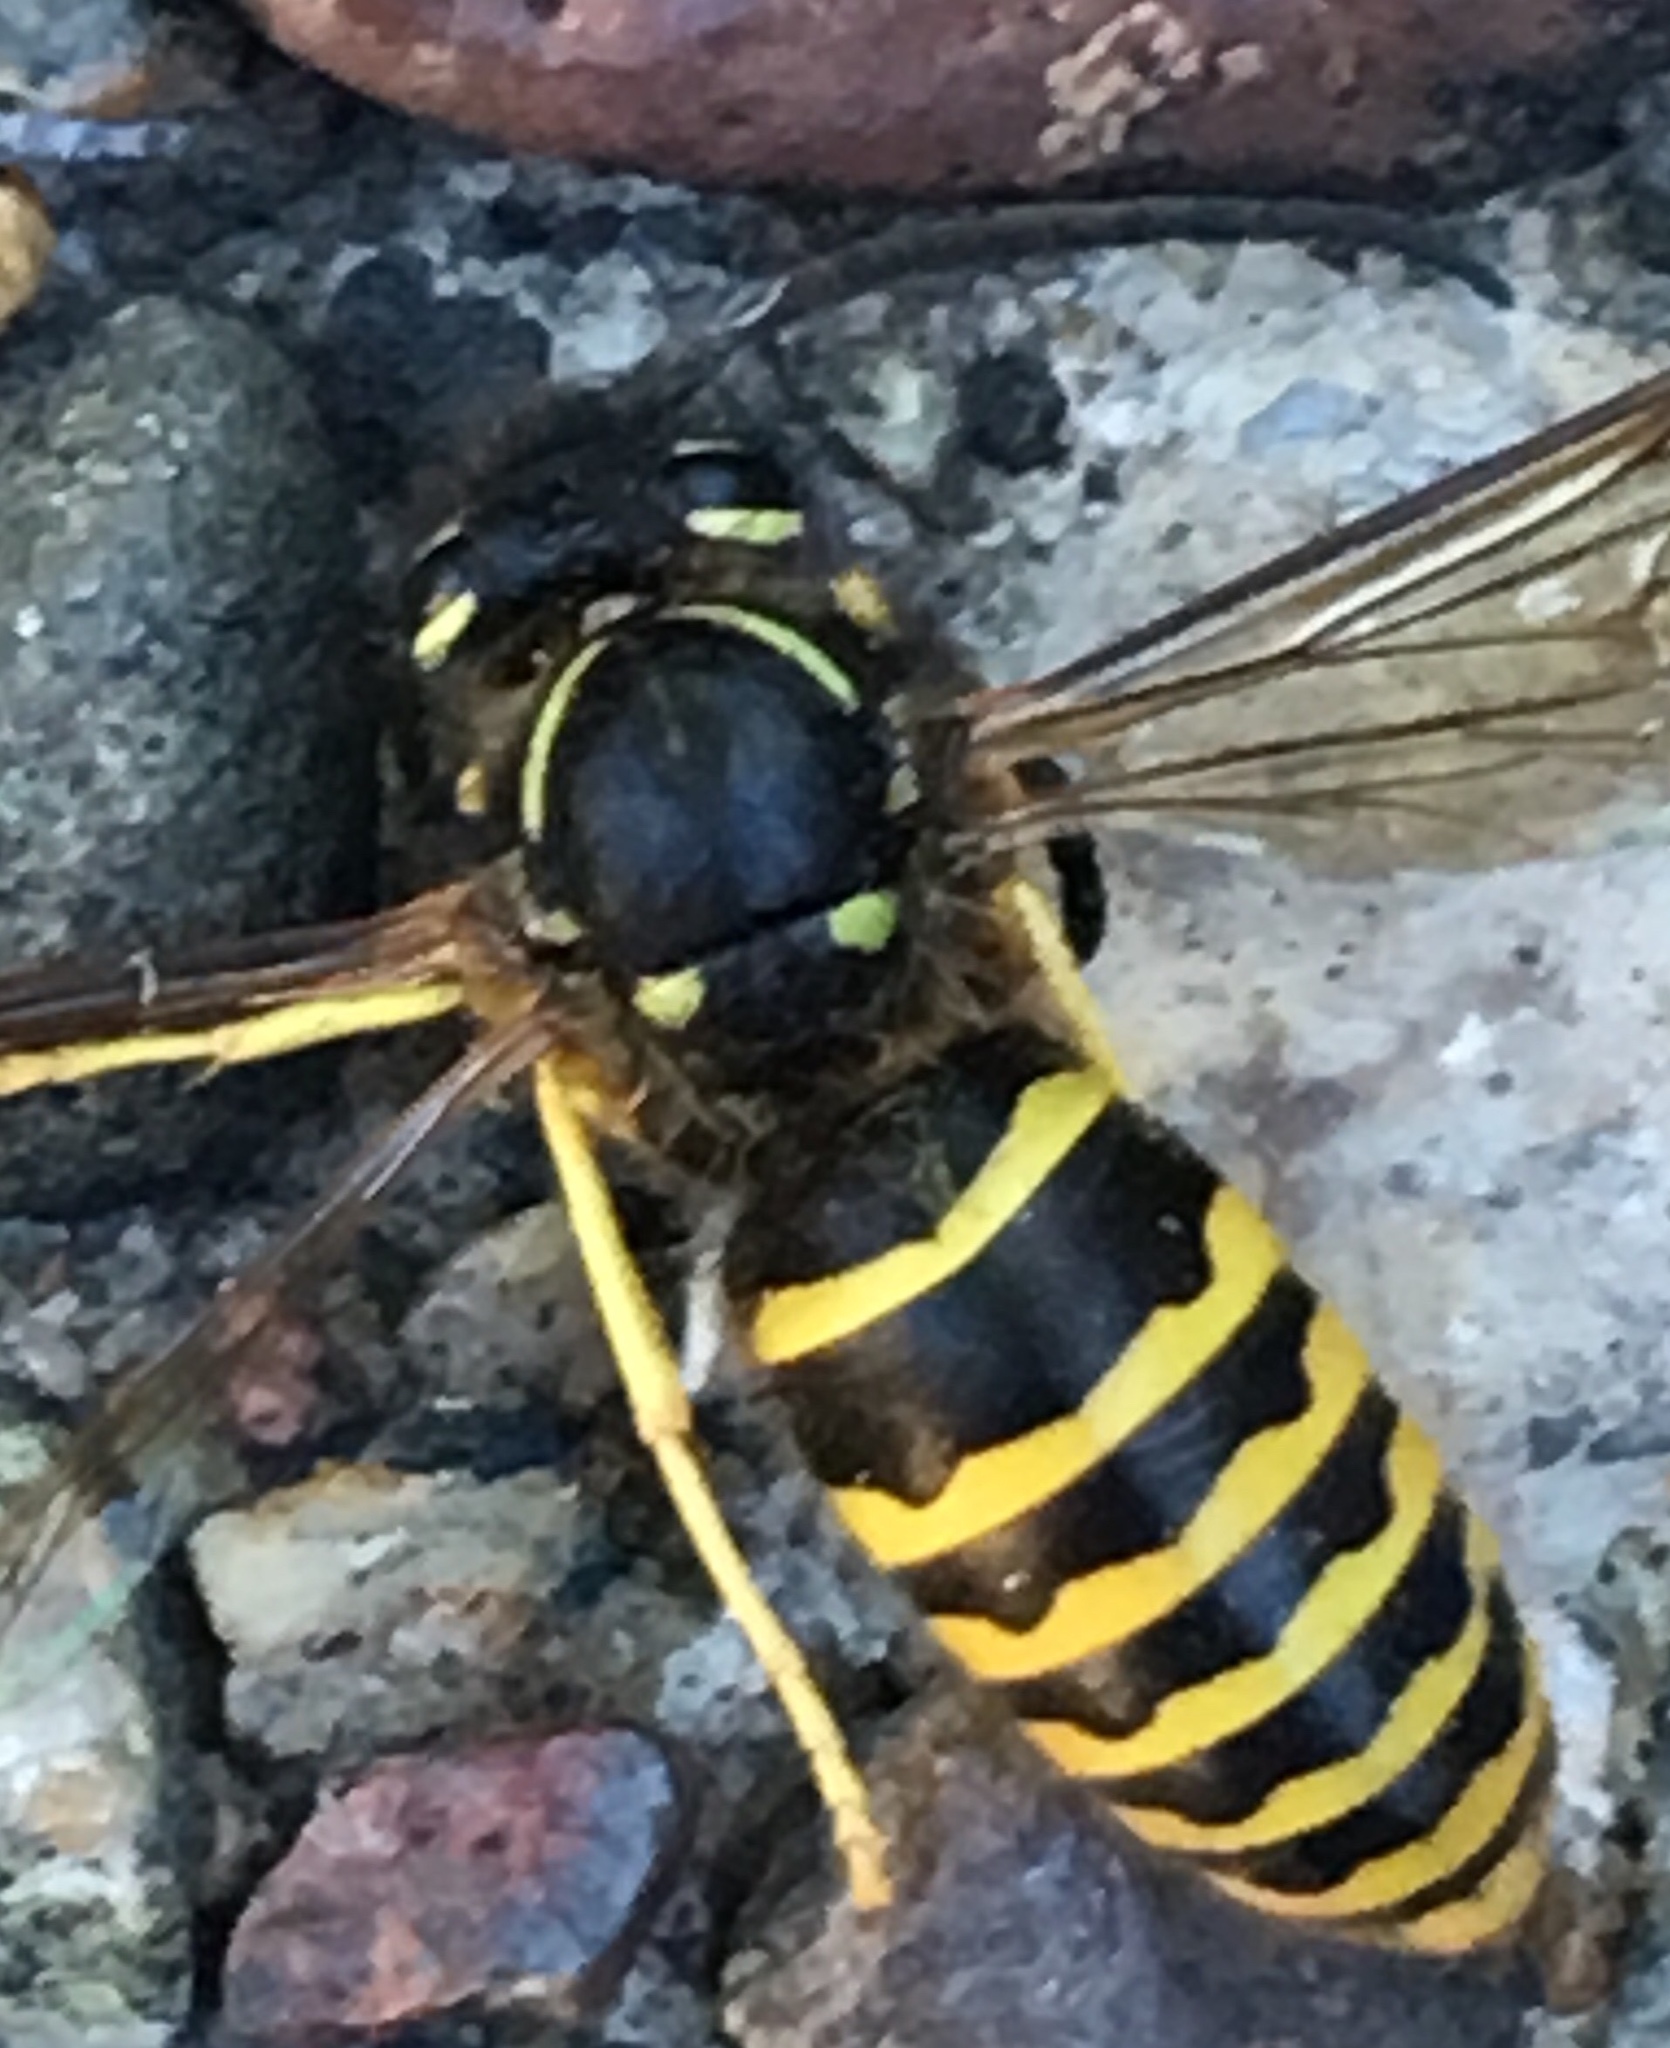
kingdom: Animalia
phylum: Arthropoda
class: Insecta
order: Hymenoptera
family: Vespidae
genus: Vespula
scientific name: Vespula maculifrons
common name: Eastern yellowjacket
